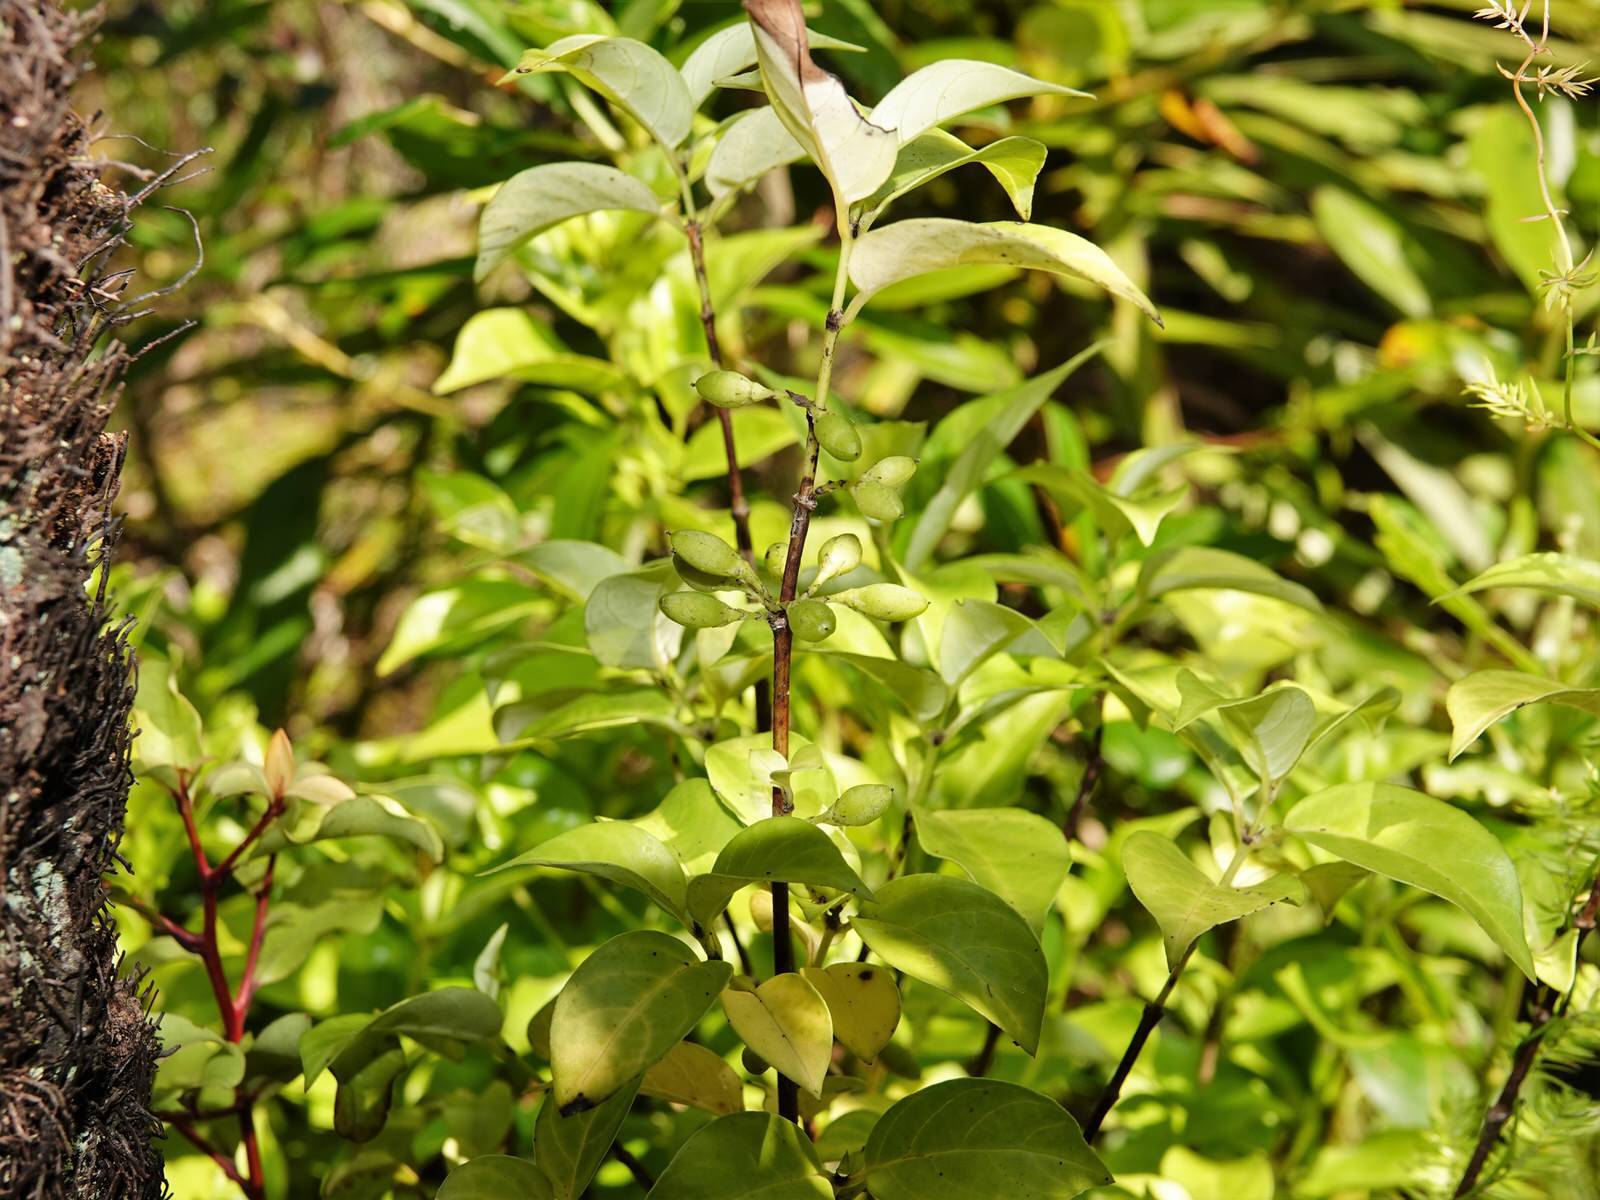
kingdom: Plantae
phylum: Tracheophyta
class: Magnoliopsida
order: Gentianales
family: Loganiaceae
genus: Geniostoma
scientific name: Geniostoma ligustrifolium
